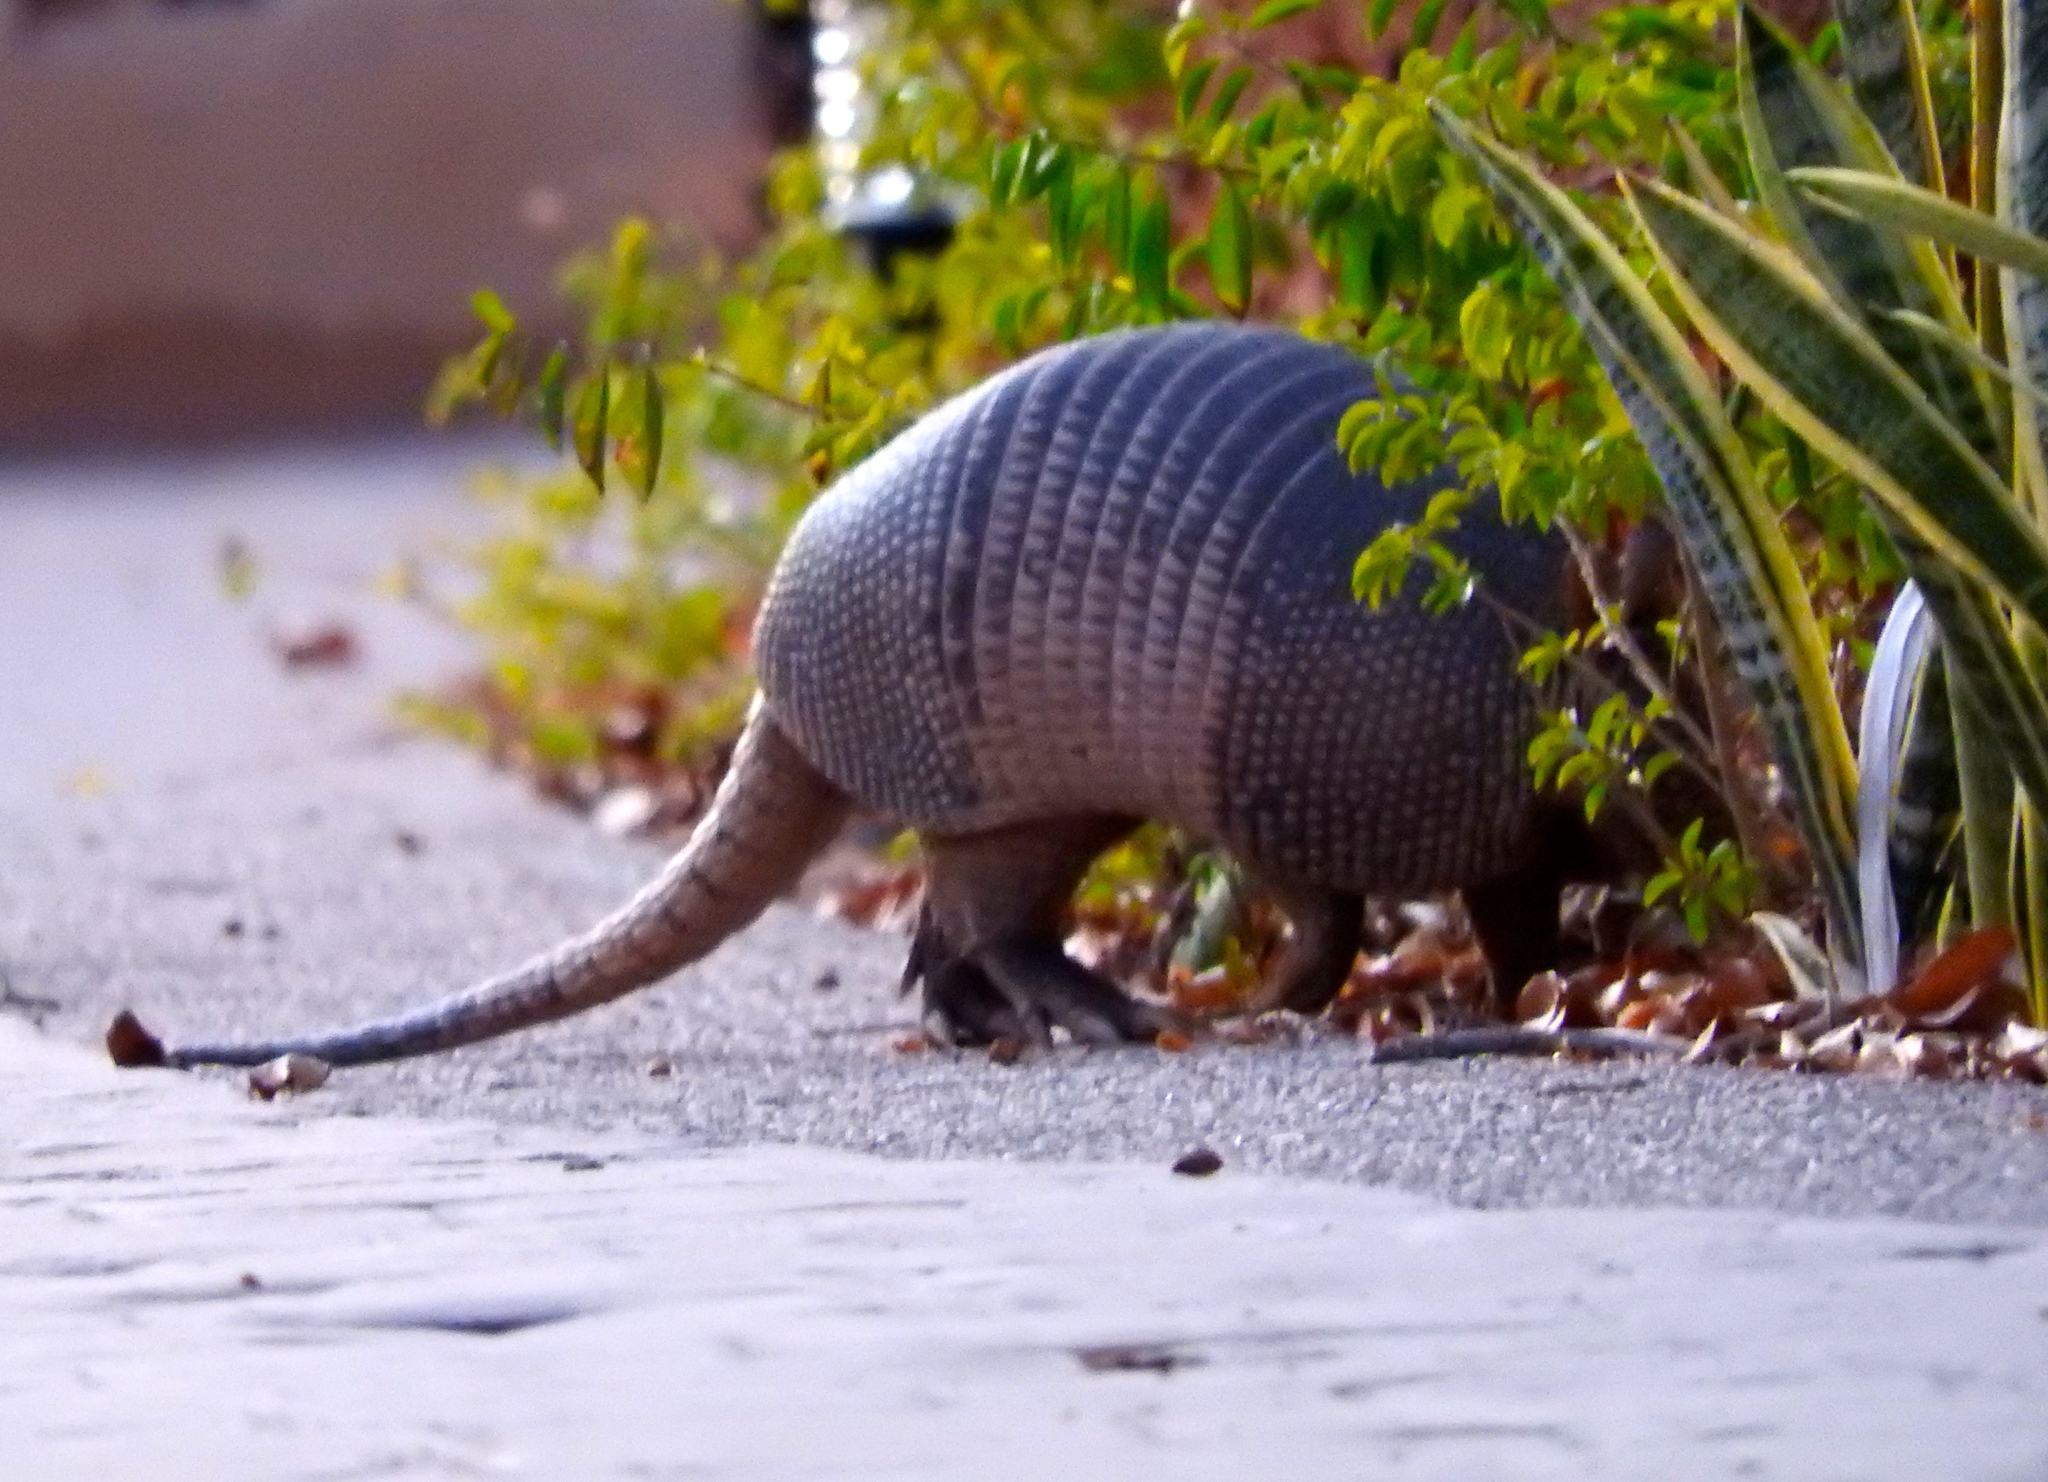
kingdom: Animalia
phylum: Chordata
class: Mammalia
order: Cingulata
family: Dasypodidae
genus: Dasypus
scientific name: Dasypus novemcinctus
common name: Nine-banded armadillo
